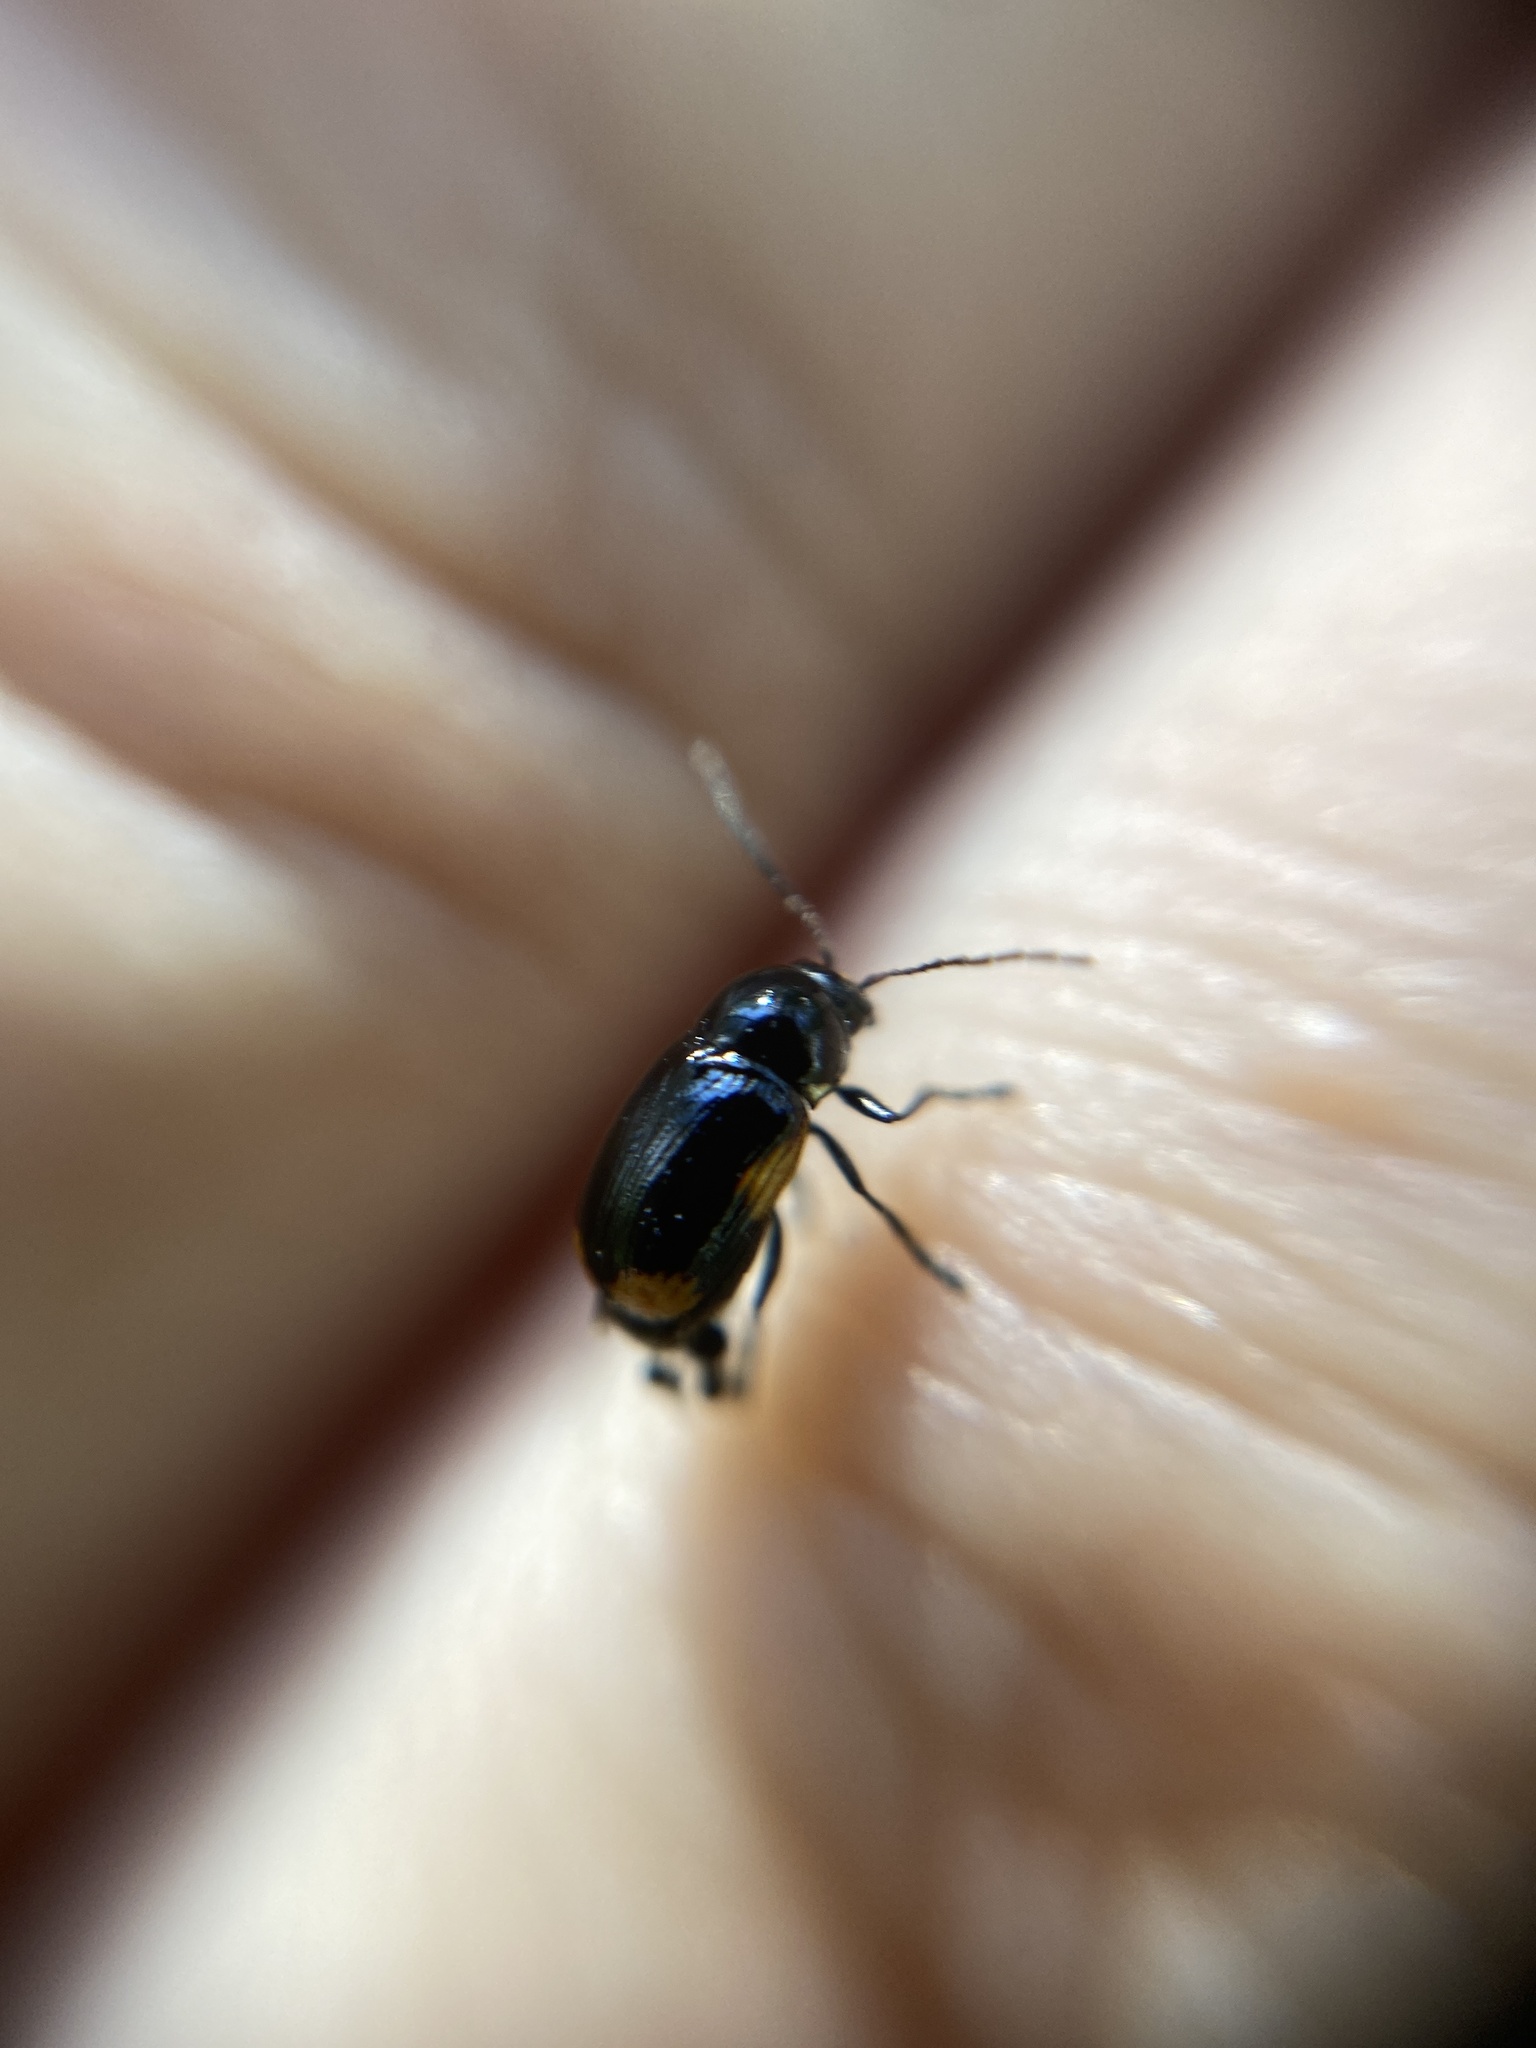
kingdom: Animalia
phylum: Arthropoda
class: Insecta
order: Coleoptera
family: Chrysomelidae
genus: Cryptocephalus
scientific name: Cryptocephalus moraei
